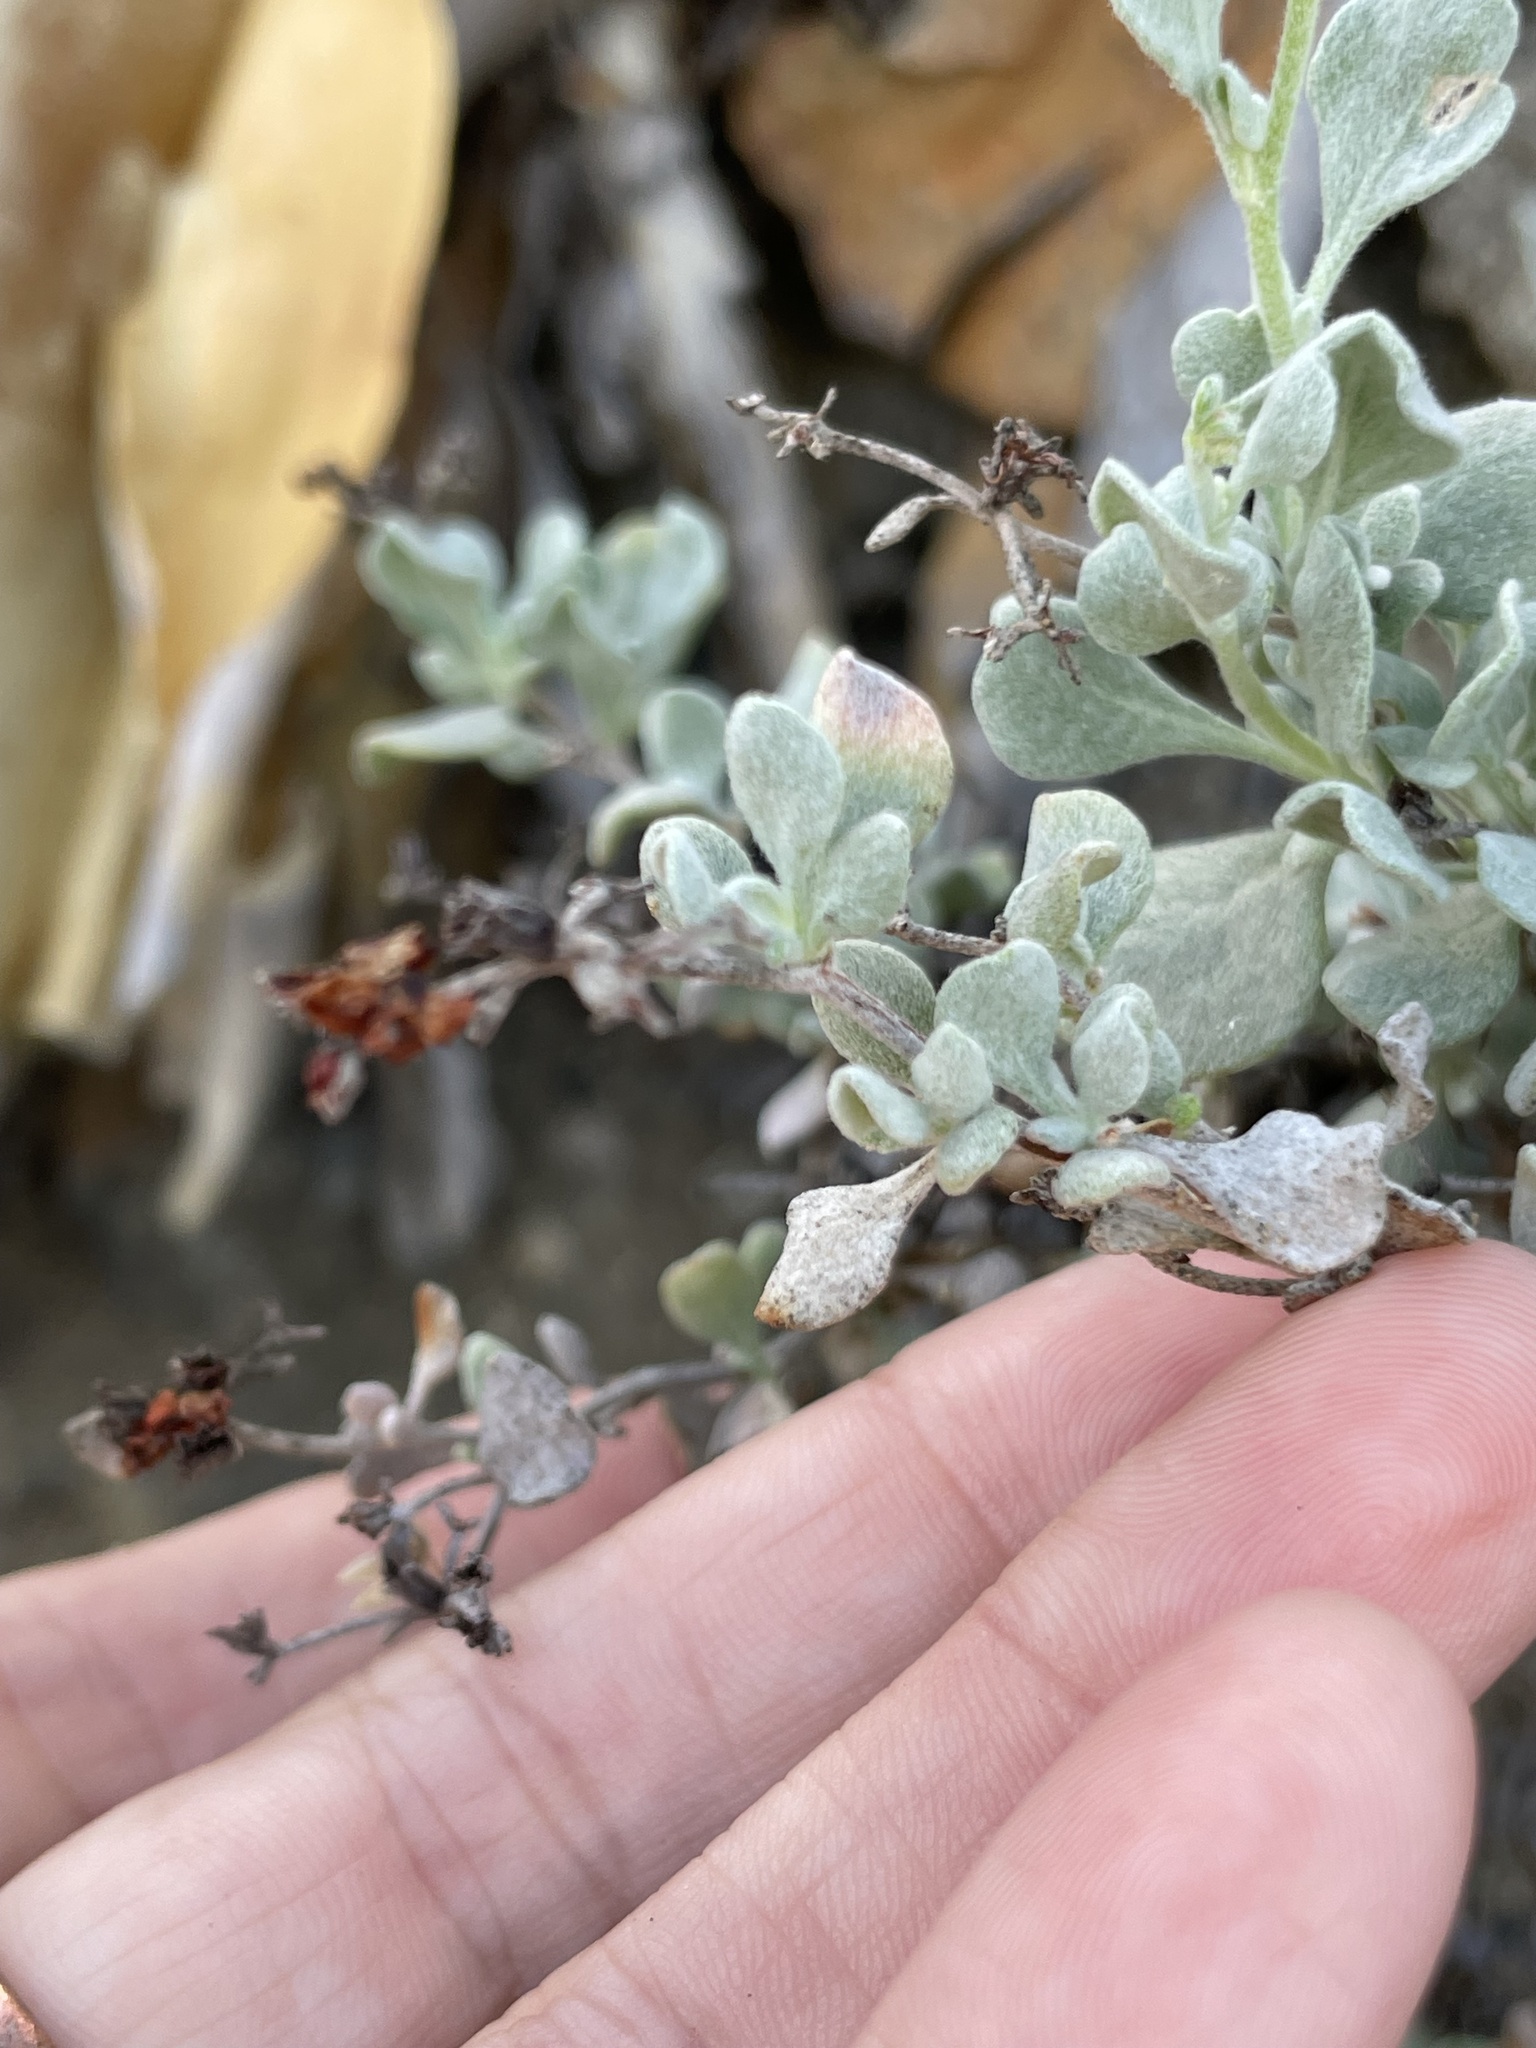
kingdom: Plantae
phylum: Tracheophyta
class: Magnoliopsida
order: Caryophyllales
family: Polygonaceae
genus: Eriogonum
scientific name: Eriogonum pondii
